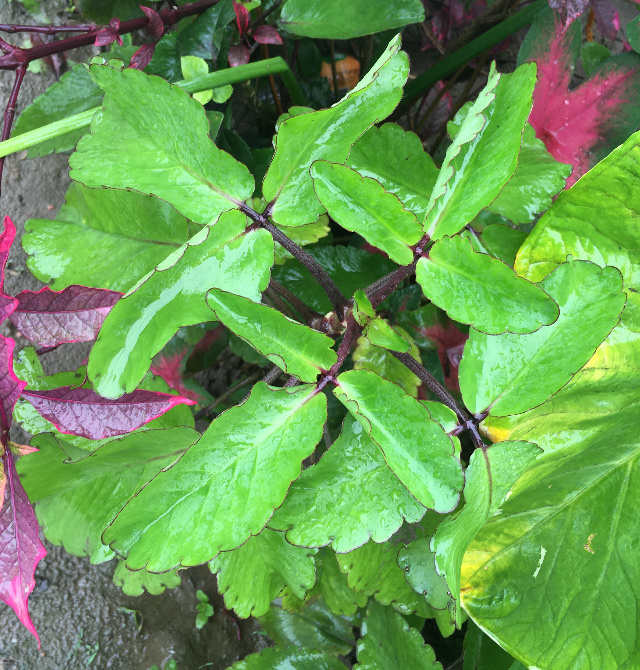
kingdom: Plantae
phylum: Tracheophyta
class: Magnoliopsida
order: Saxifragales
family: Crassulaceae
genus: Kalanchoe
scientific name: Kalanchoe pinnata
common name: Cathedral bells
